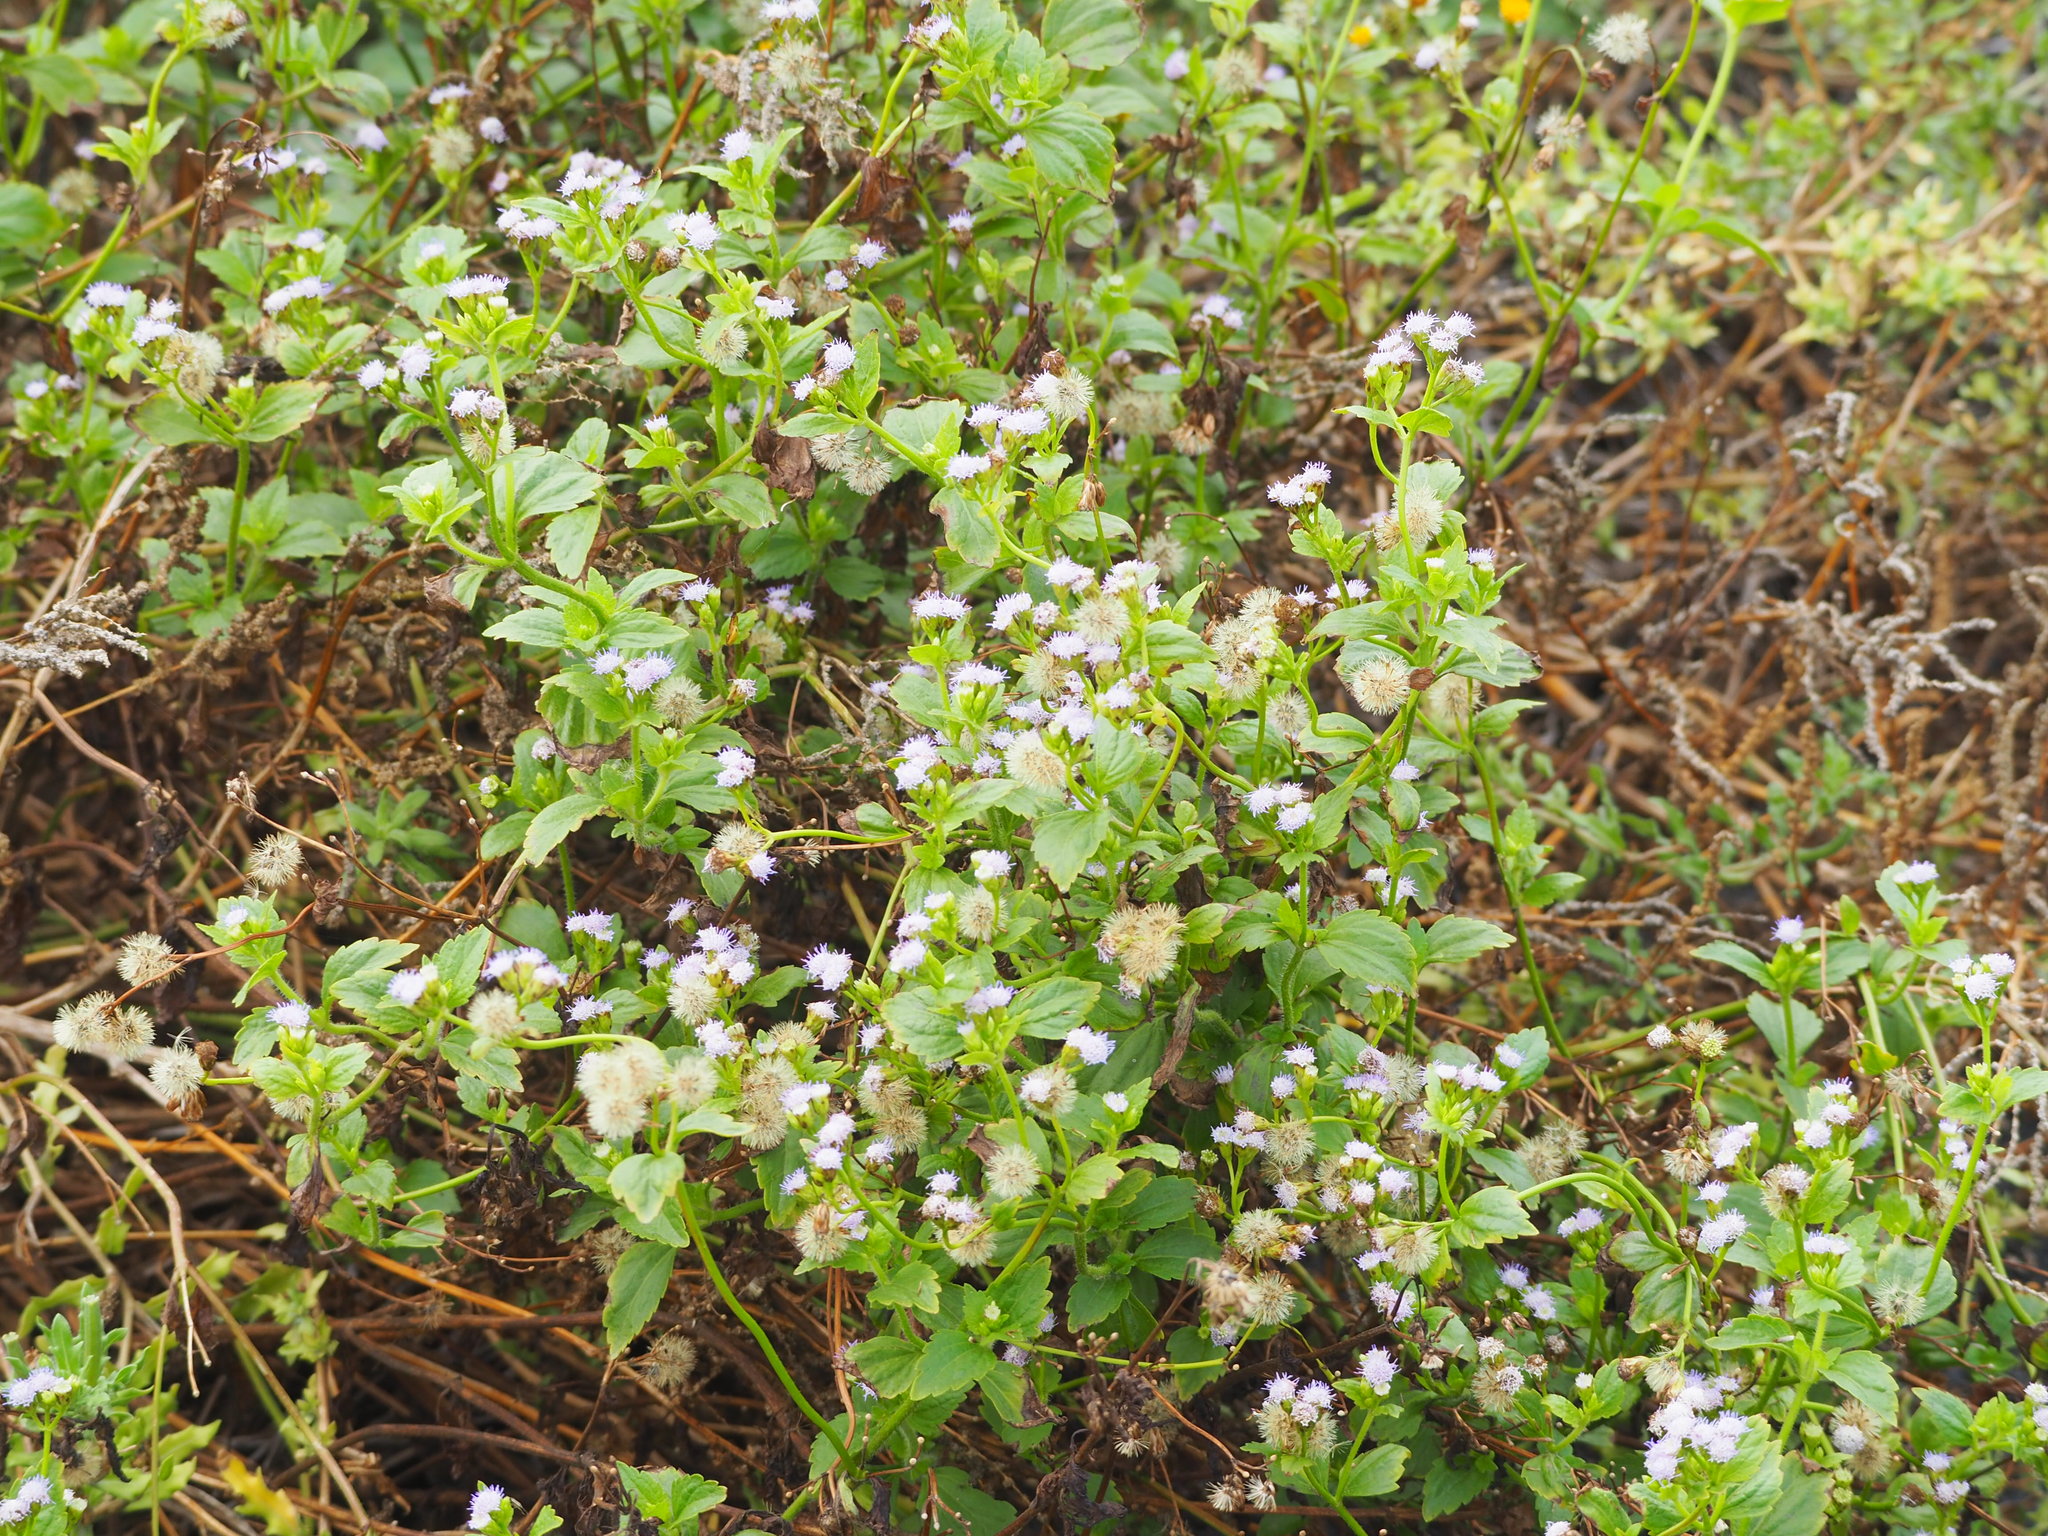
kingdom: Plantae
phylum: Tracheophyta
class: Magnoliopsida
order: Asterales
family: Asteraceae
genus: Praxelis
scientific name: Praxelis clematidea
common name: Praxelis
